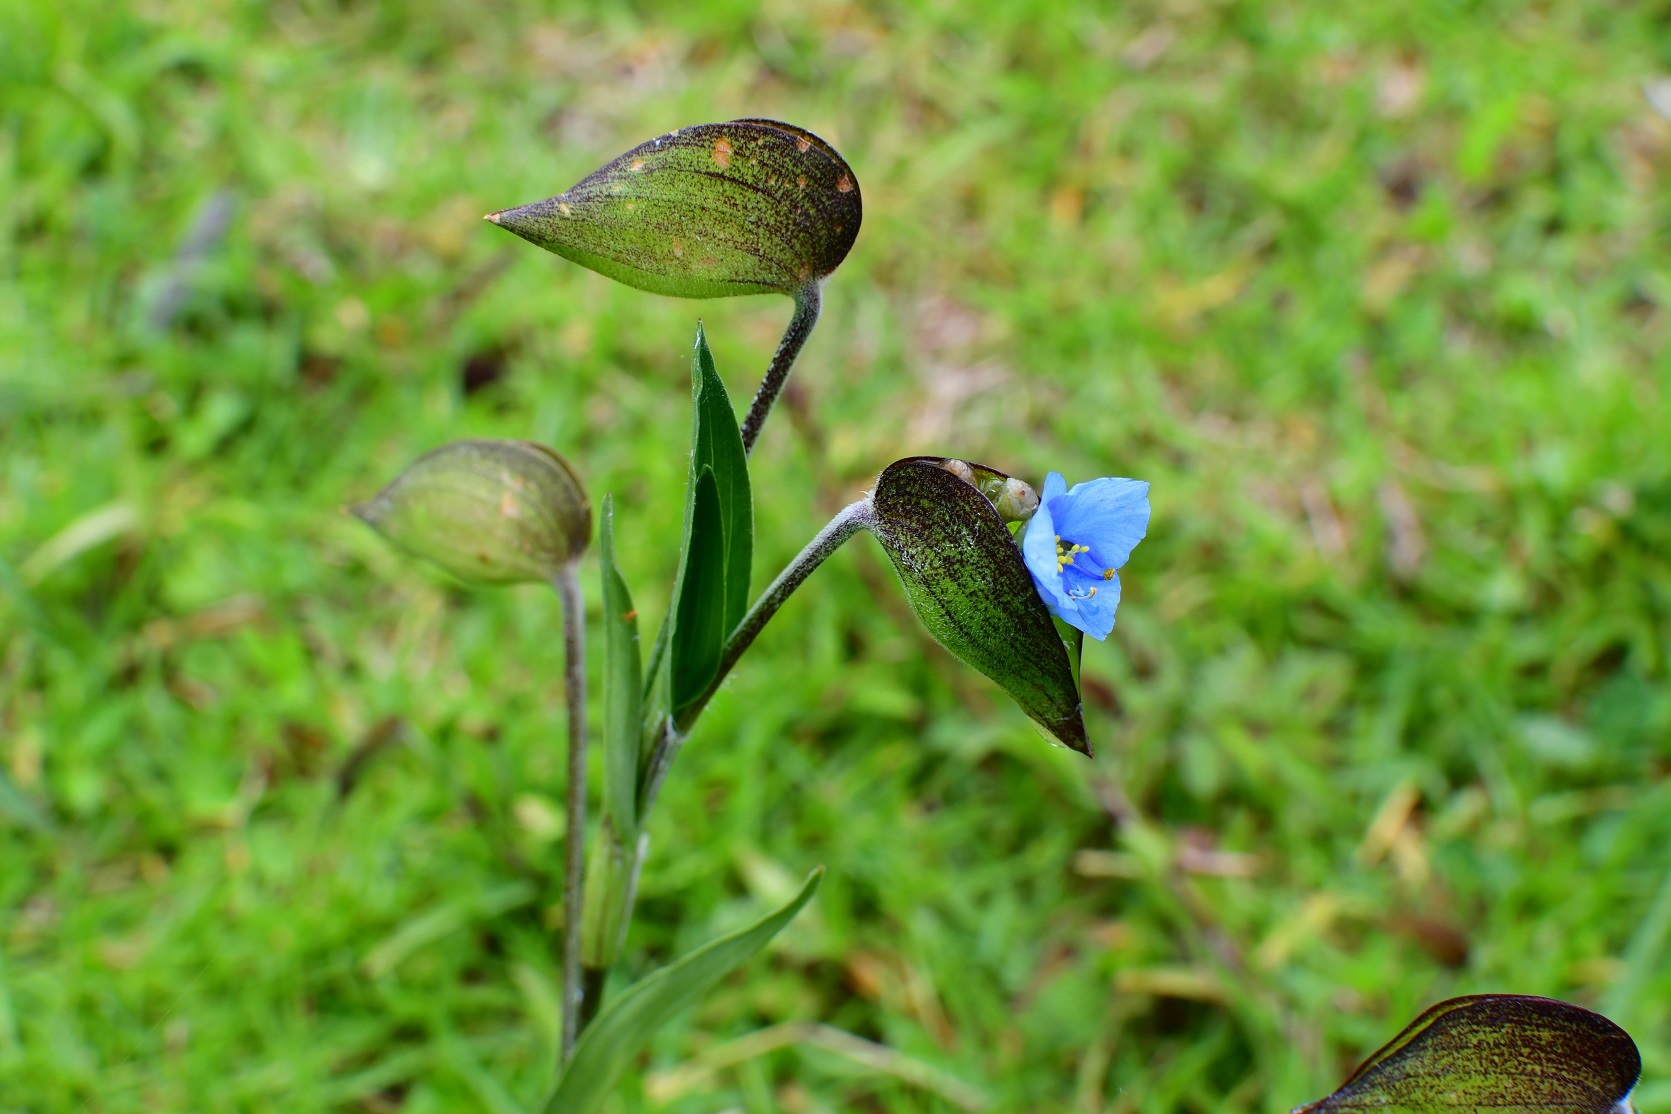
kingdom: Plantae
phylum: Tracheophyta
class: Liliopsida
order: Commelinales
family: Commelinaceae
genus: Commelina
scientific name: Commelina tuberosa
